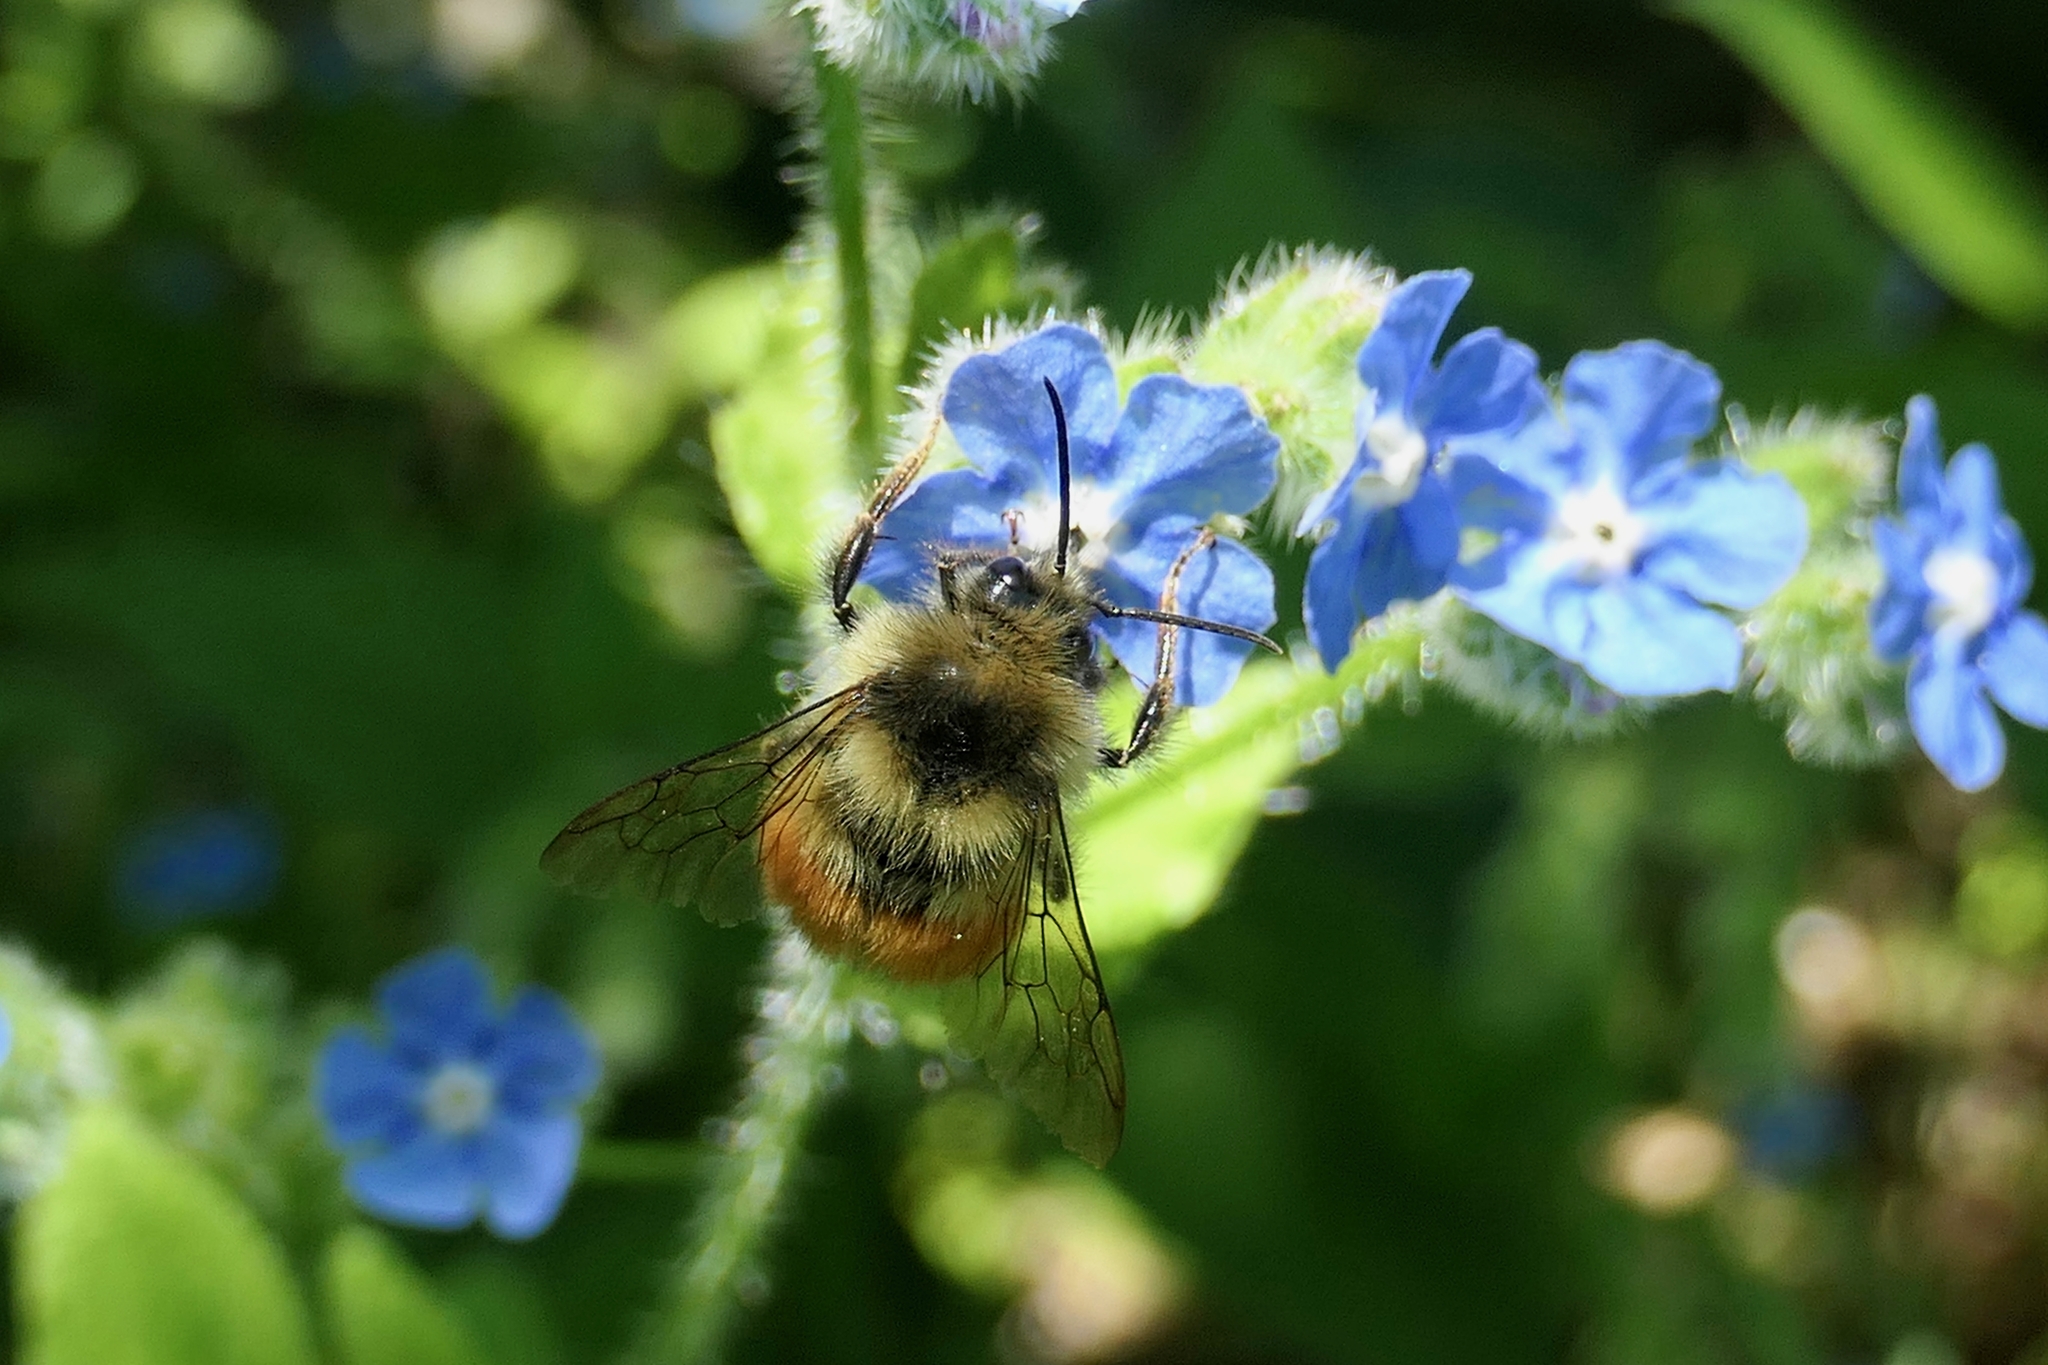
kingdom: Animalia
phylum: Arthropoda
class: Insecta
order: Hymenoptera
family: Apidae
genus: Bombus
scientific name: Bombus melanopygus
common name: Black tail bumble bee
